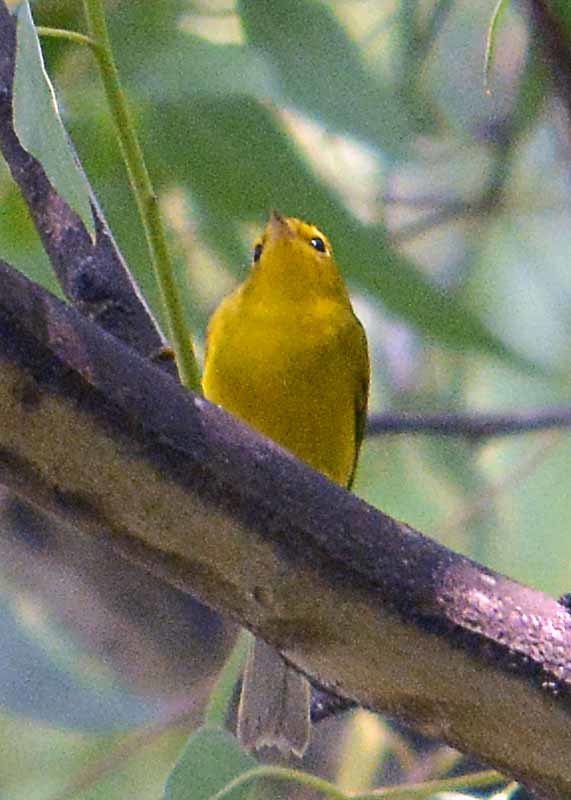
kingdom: Animalia
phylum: Chordata
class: Aves
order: Passeriformes
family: Parulidae
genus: Cardellina
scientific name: Cardellina pusilla
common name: Wilson's warbler
